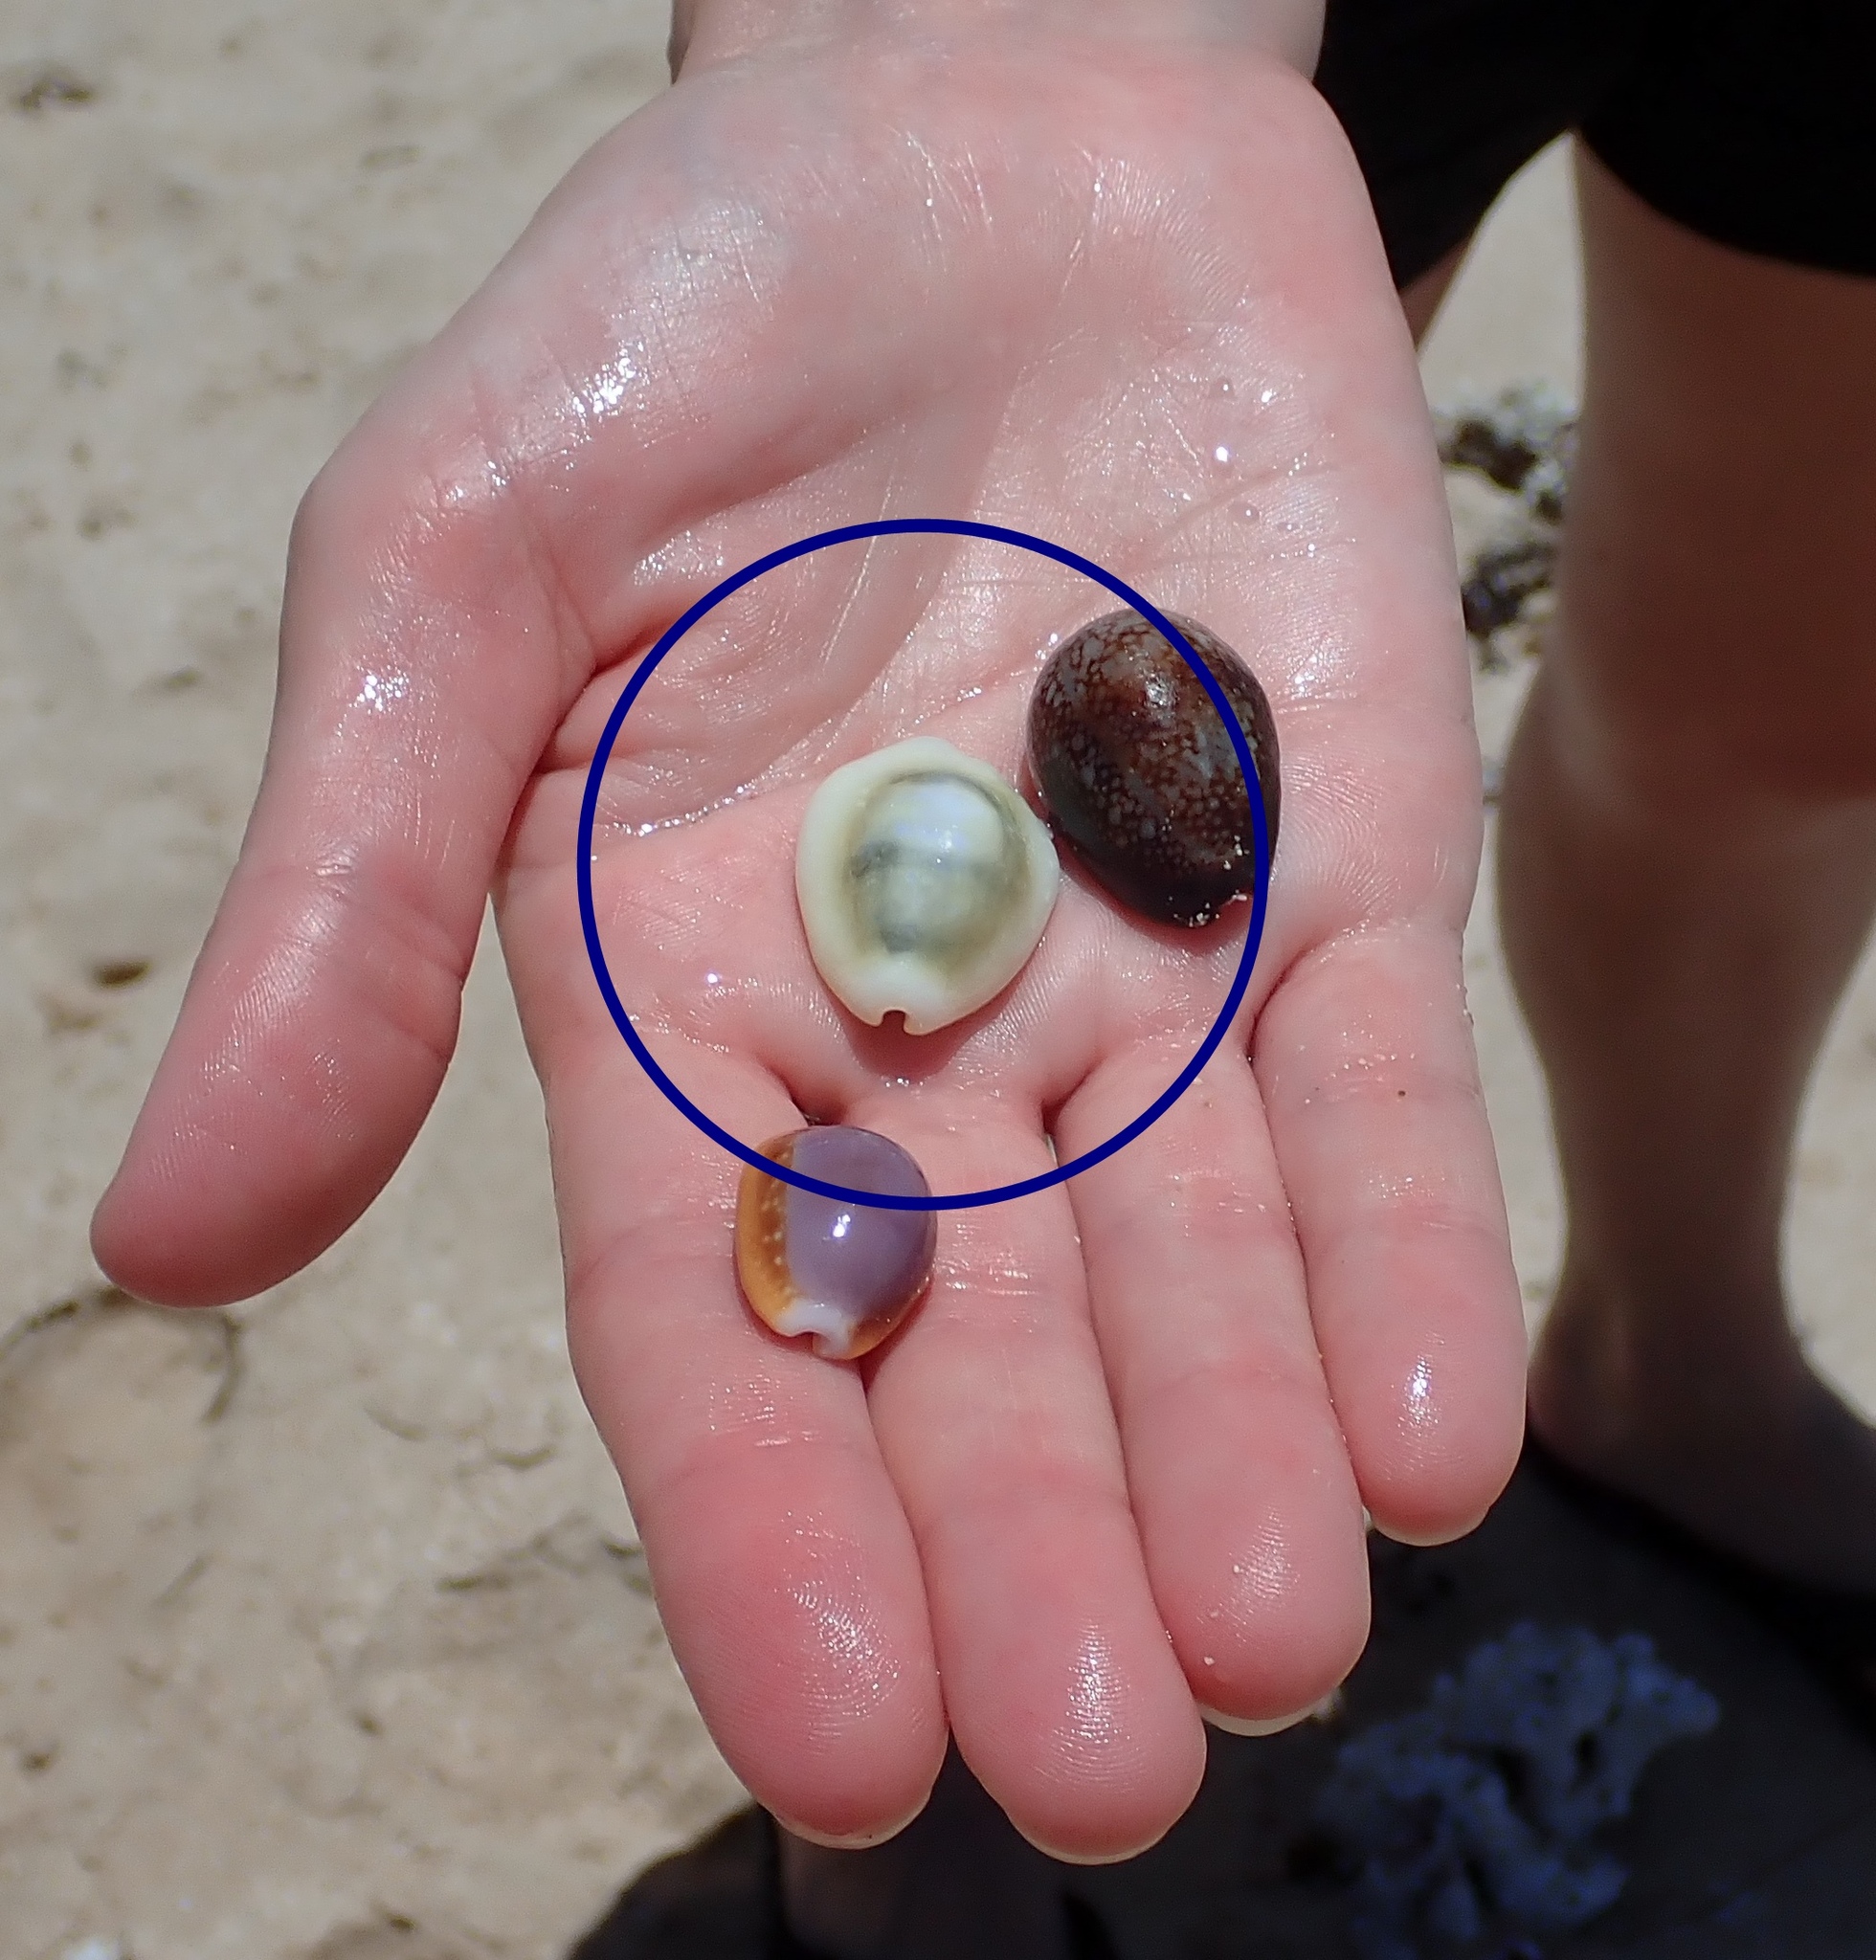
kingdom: Animalia
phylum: Mollusca
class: Gastropoda
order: Littorinimorpha
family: Cypraeidae
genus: Monetaria
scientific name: Monetaria moneta
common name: Money cowrie
